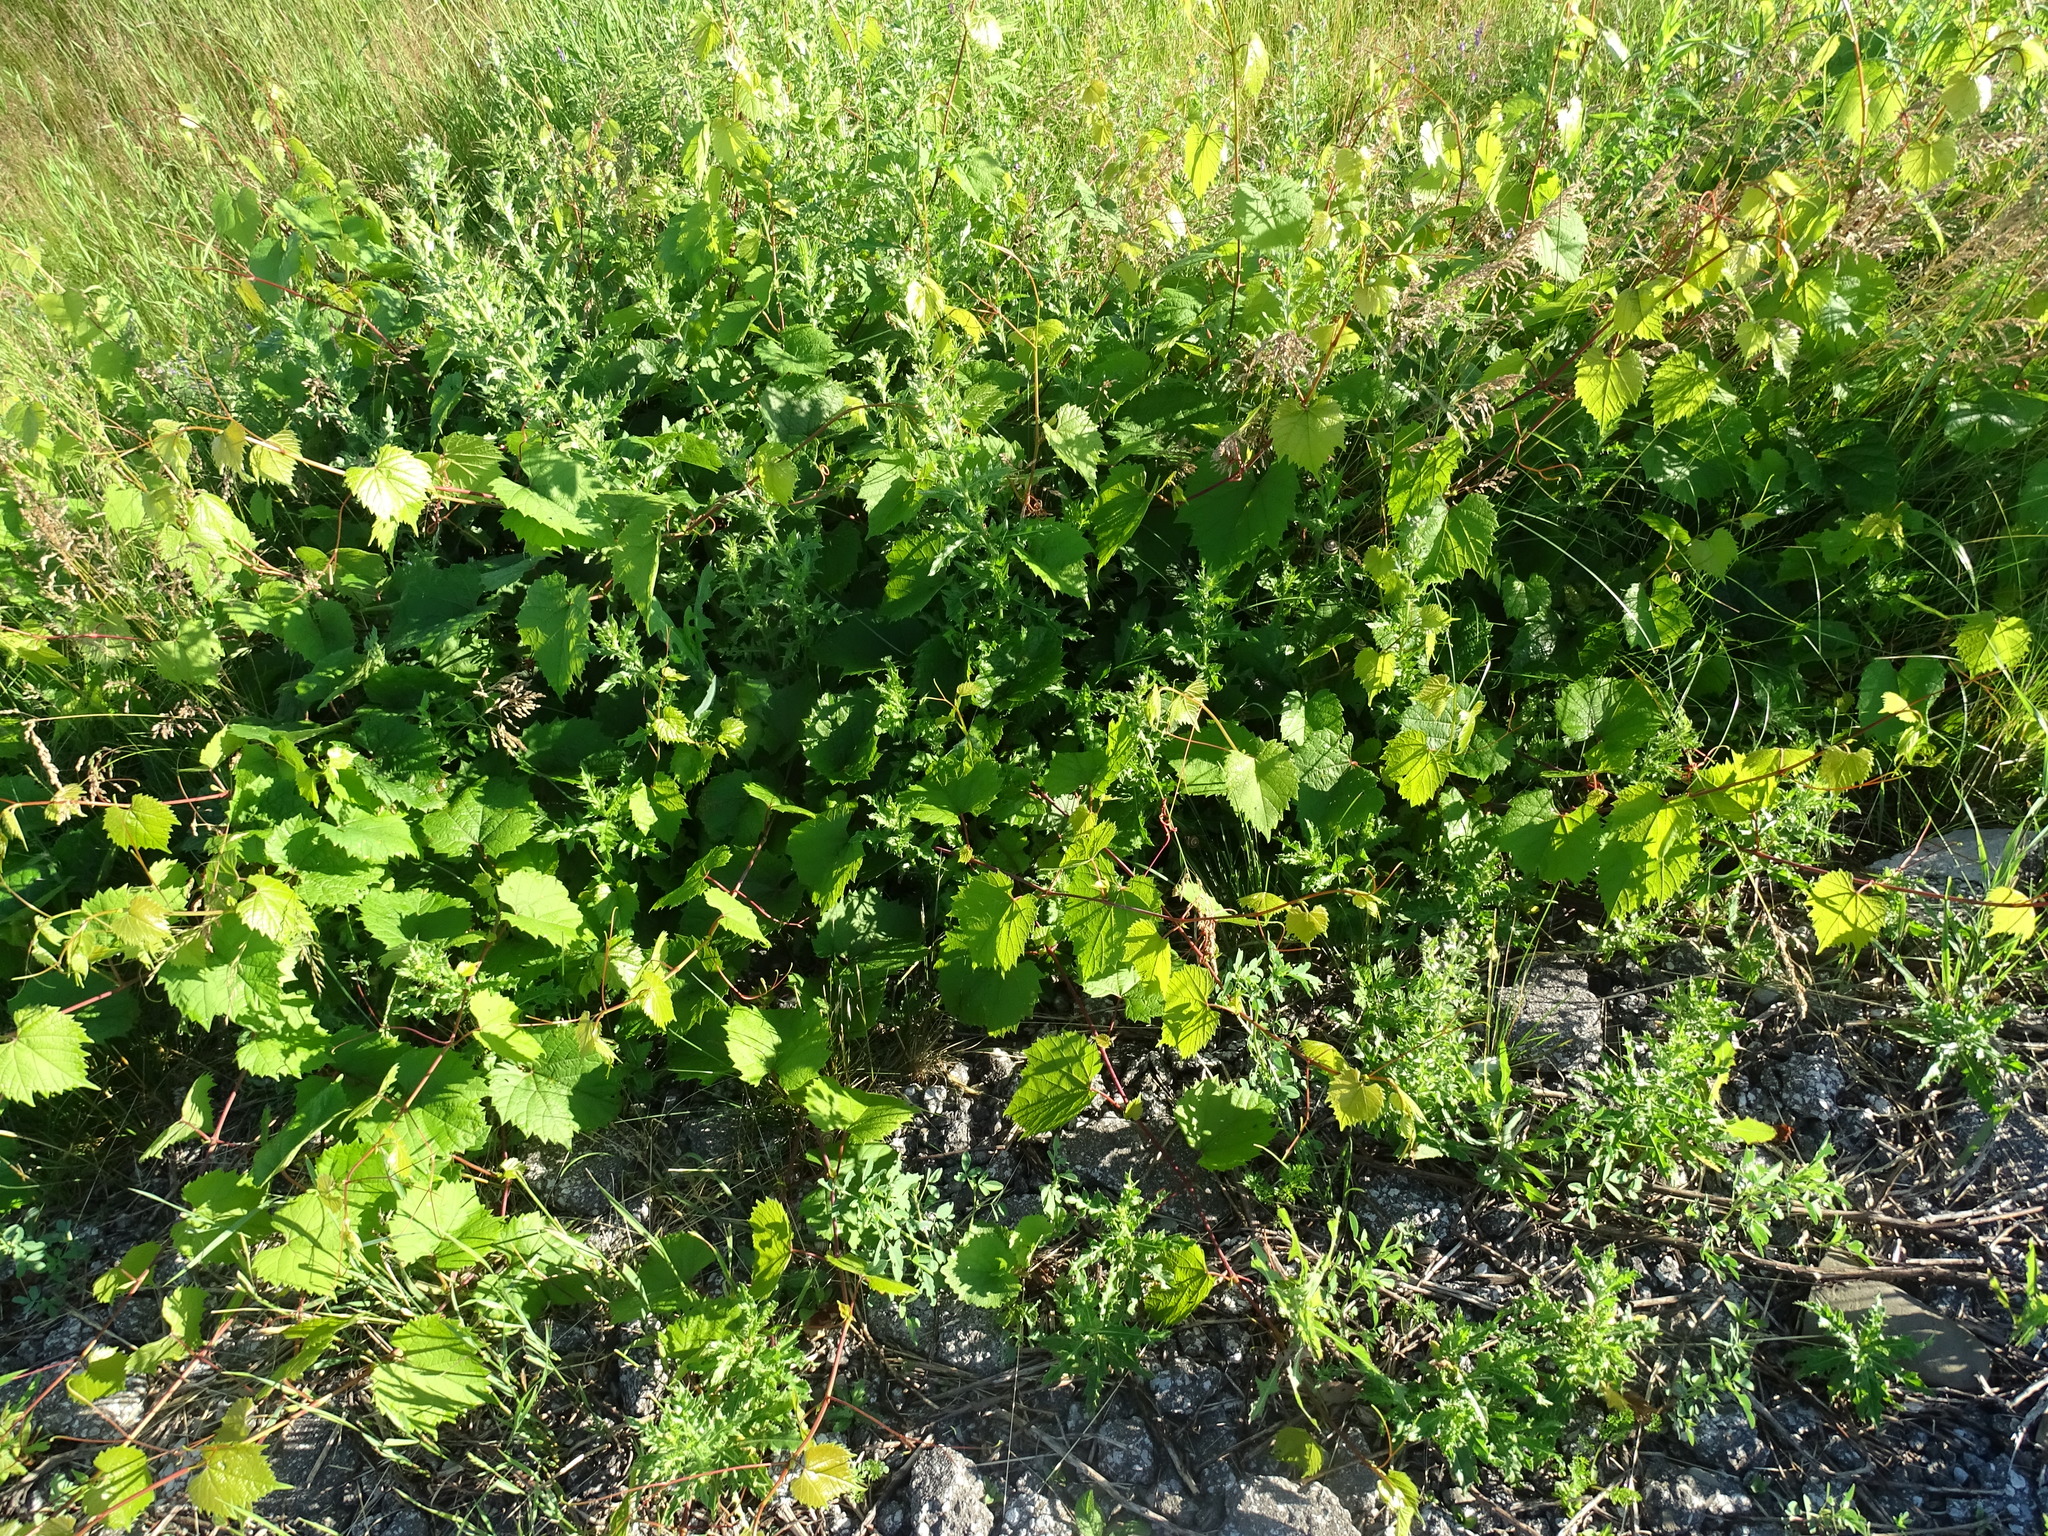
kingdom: Plantae
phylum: Tracheophyta
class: Magnoliopsida
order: Vitales
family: Vitaceae
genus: Vitis
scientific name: Vitis riparia
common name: Frost grape
